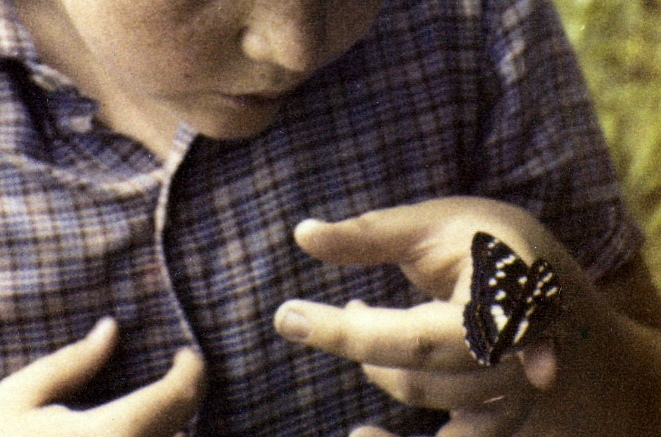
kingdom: Animalia
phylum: Arthropoda
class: Insecta
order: Lepidoptera
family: Nymphalidae
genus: Limenitis
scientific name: Limenitis populi
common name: Poplar admiral
